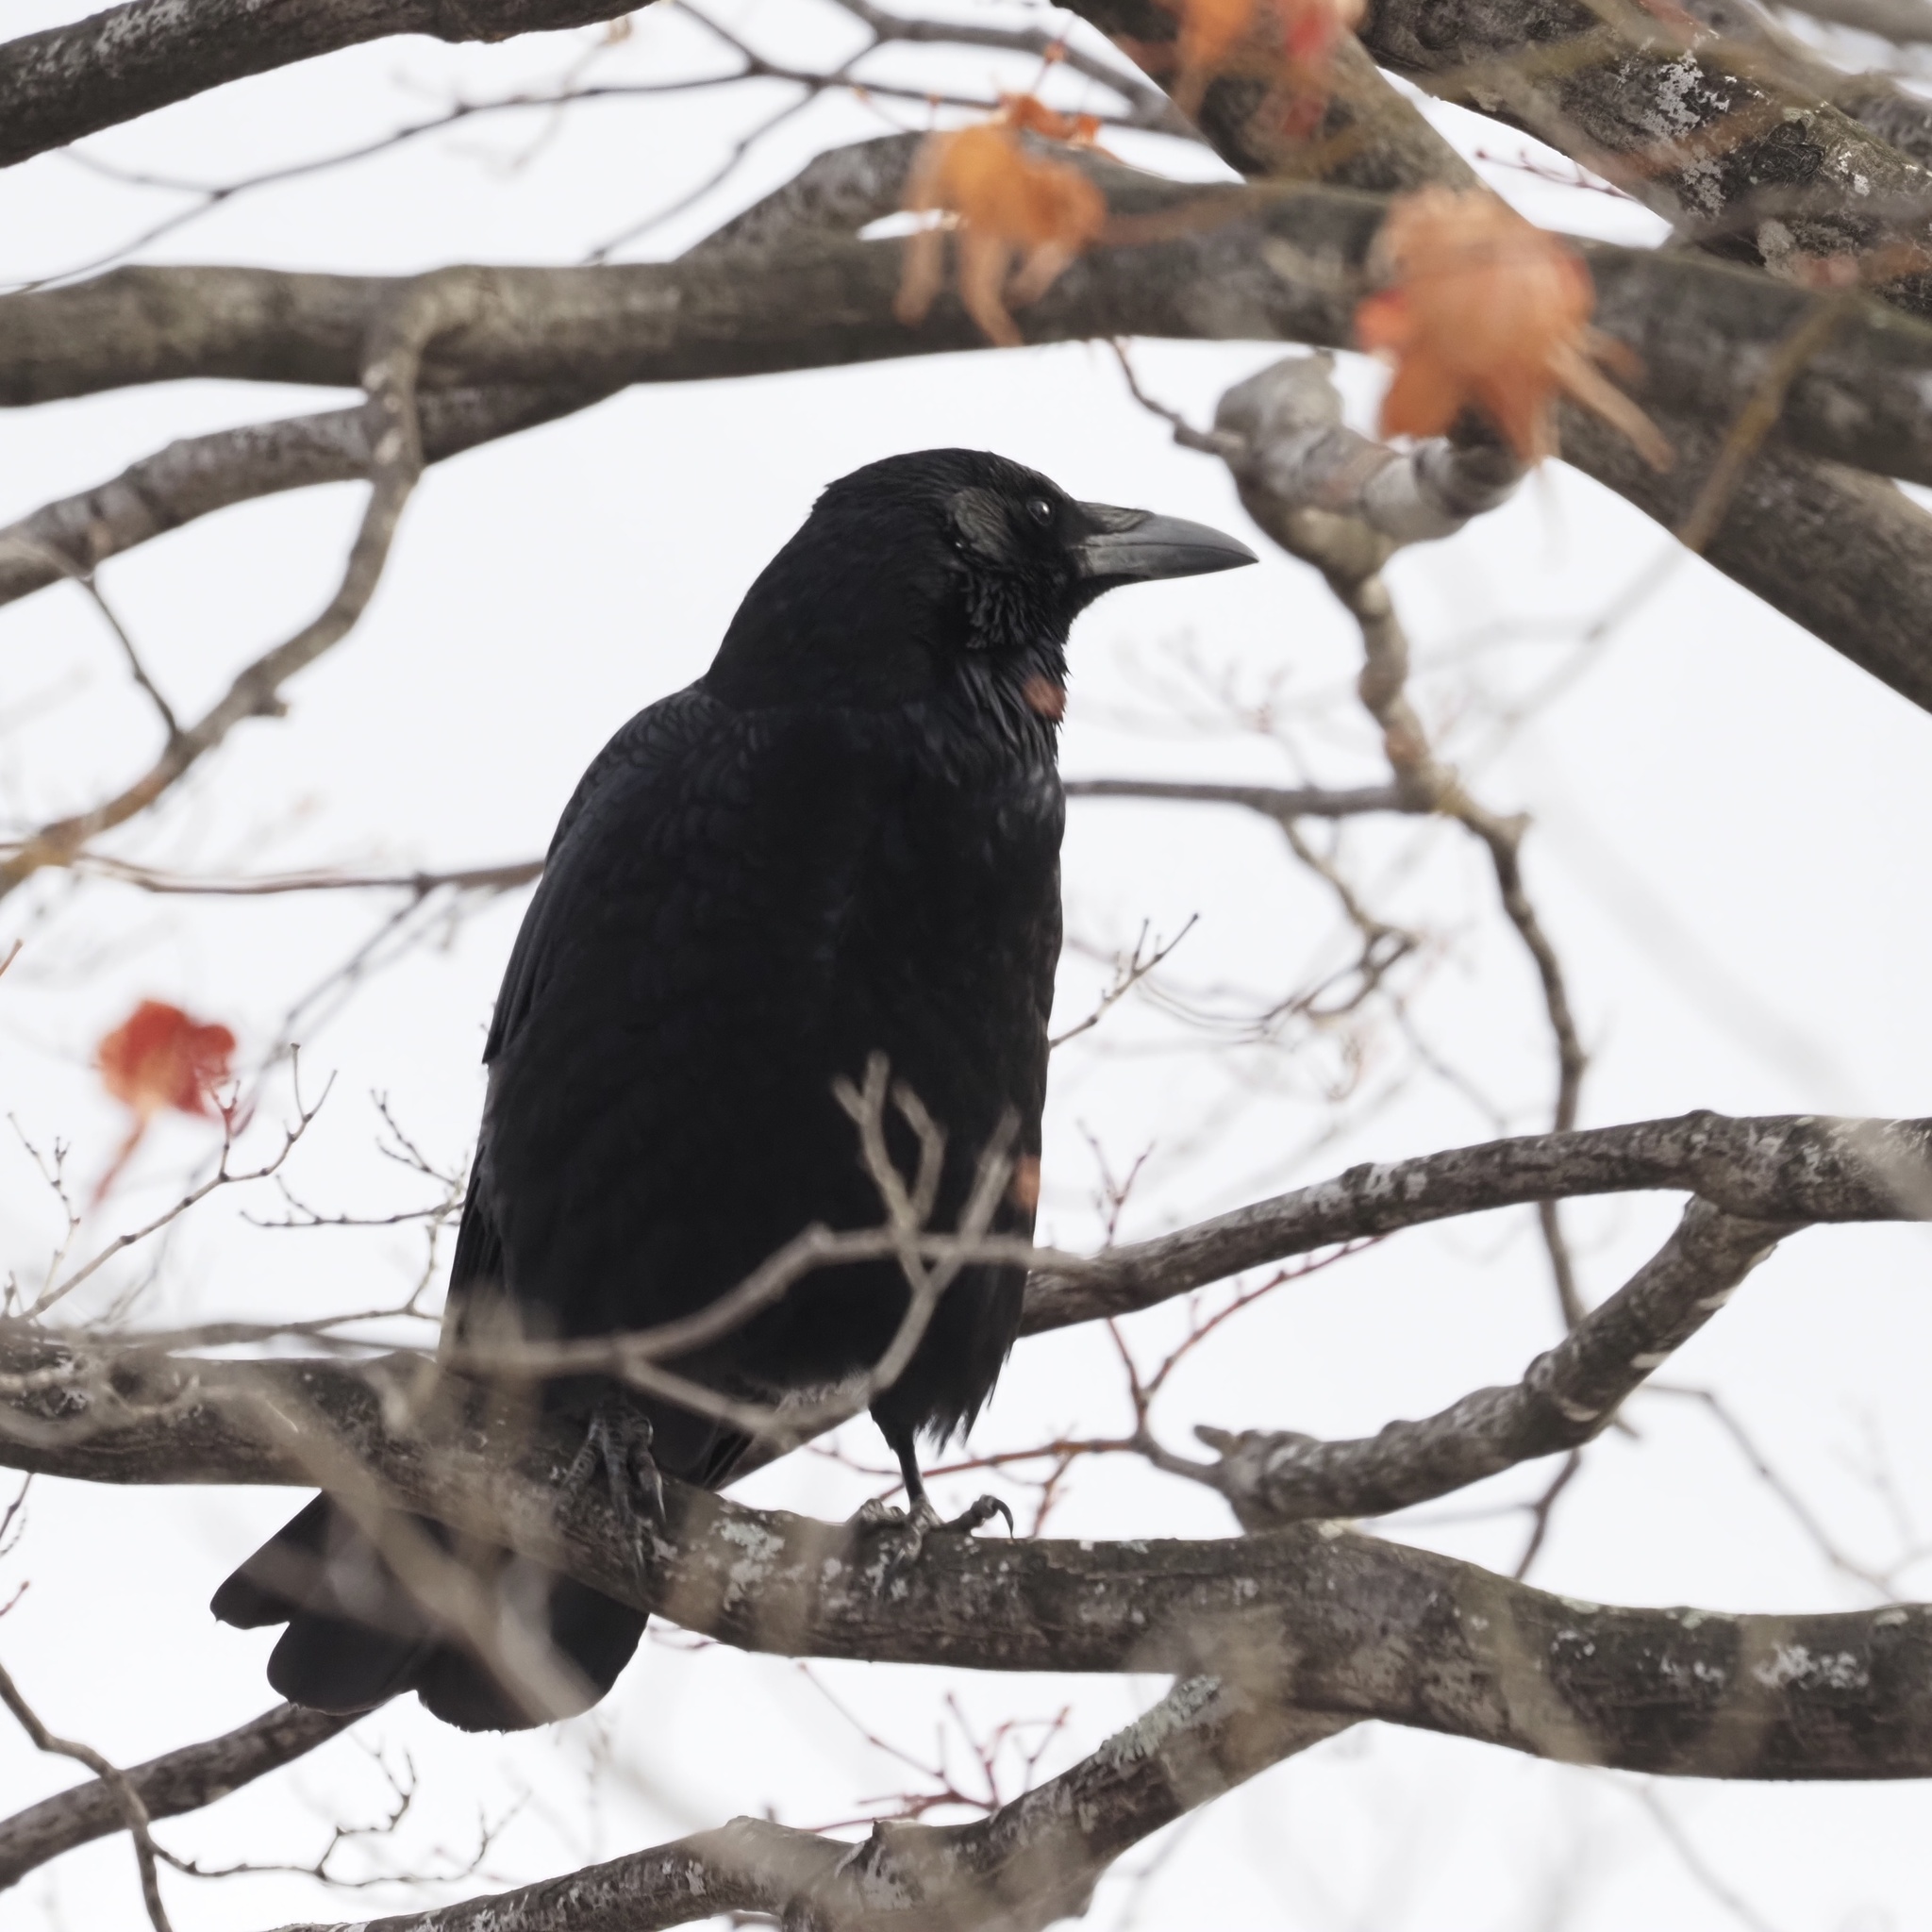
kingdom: Animalia
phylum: Chordata
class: Aves
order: Passeriformes
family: Corvidae
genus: Corvus
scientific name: Corvus corone
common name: Carrion crow
